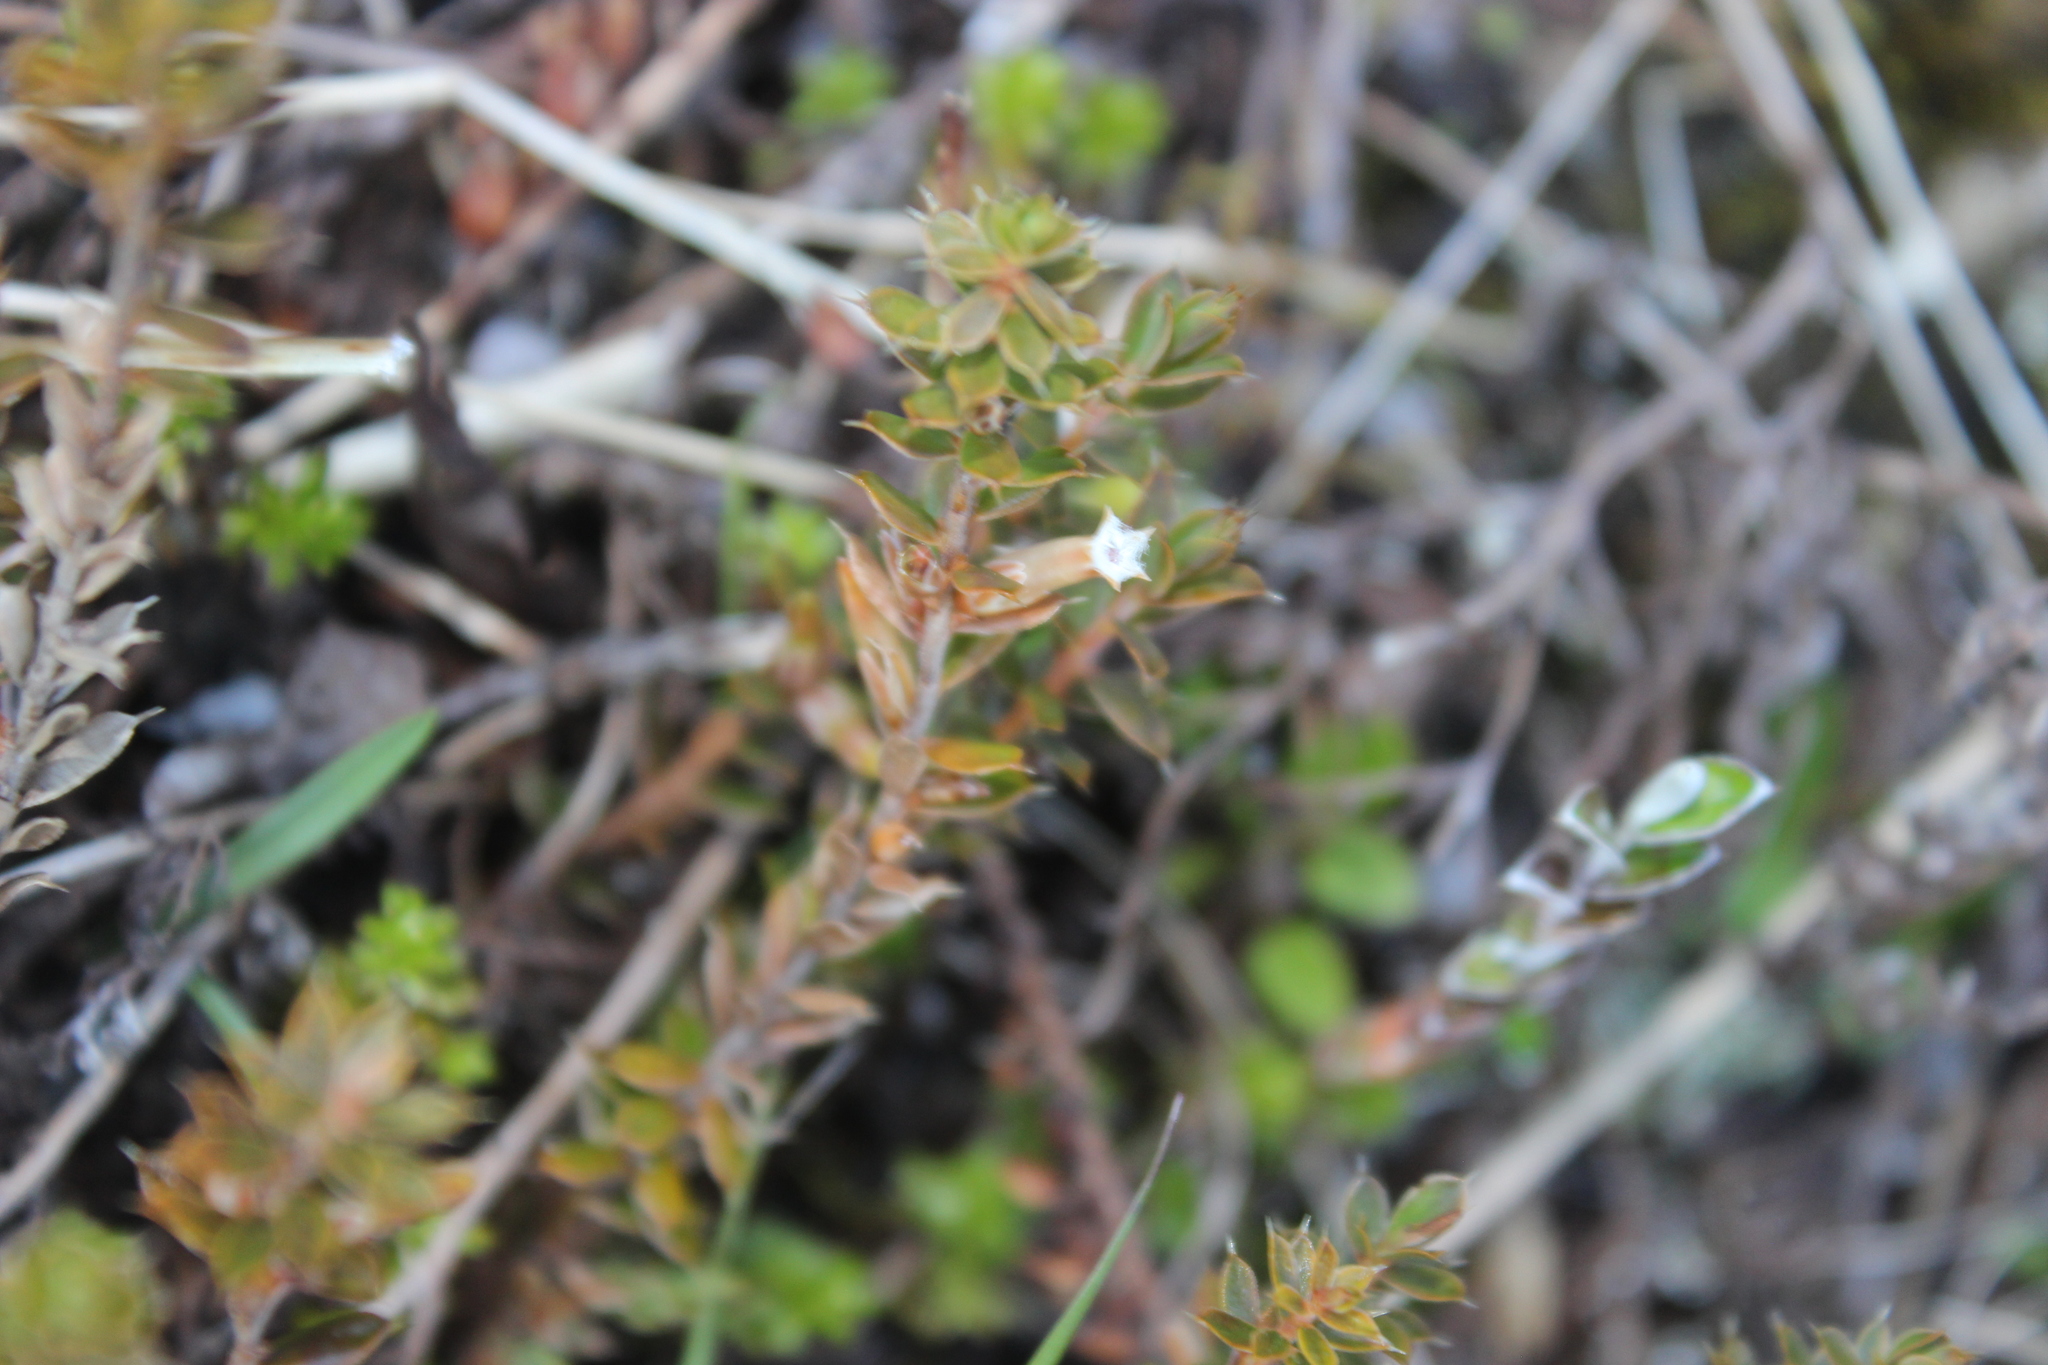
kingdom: Plantae
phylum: Tracheophyta
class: Magnoliopsida
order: Ericales
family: Ericaceae
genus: Styphelia
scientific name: Styphelia nesophila
